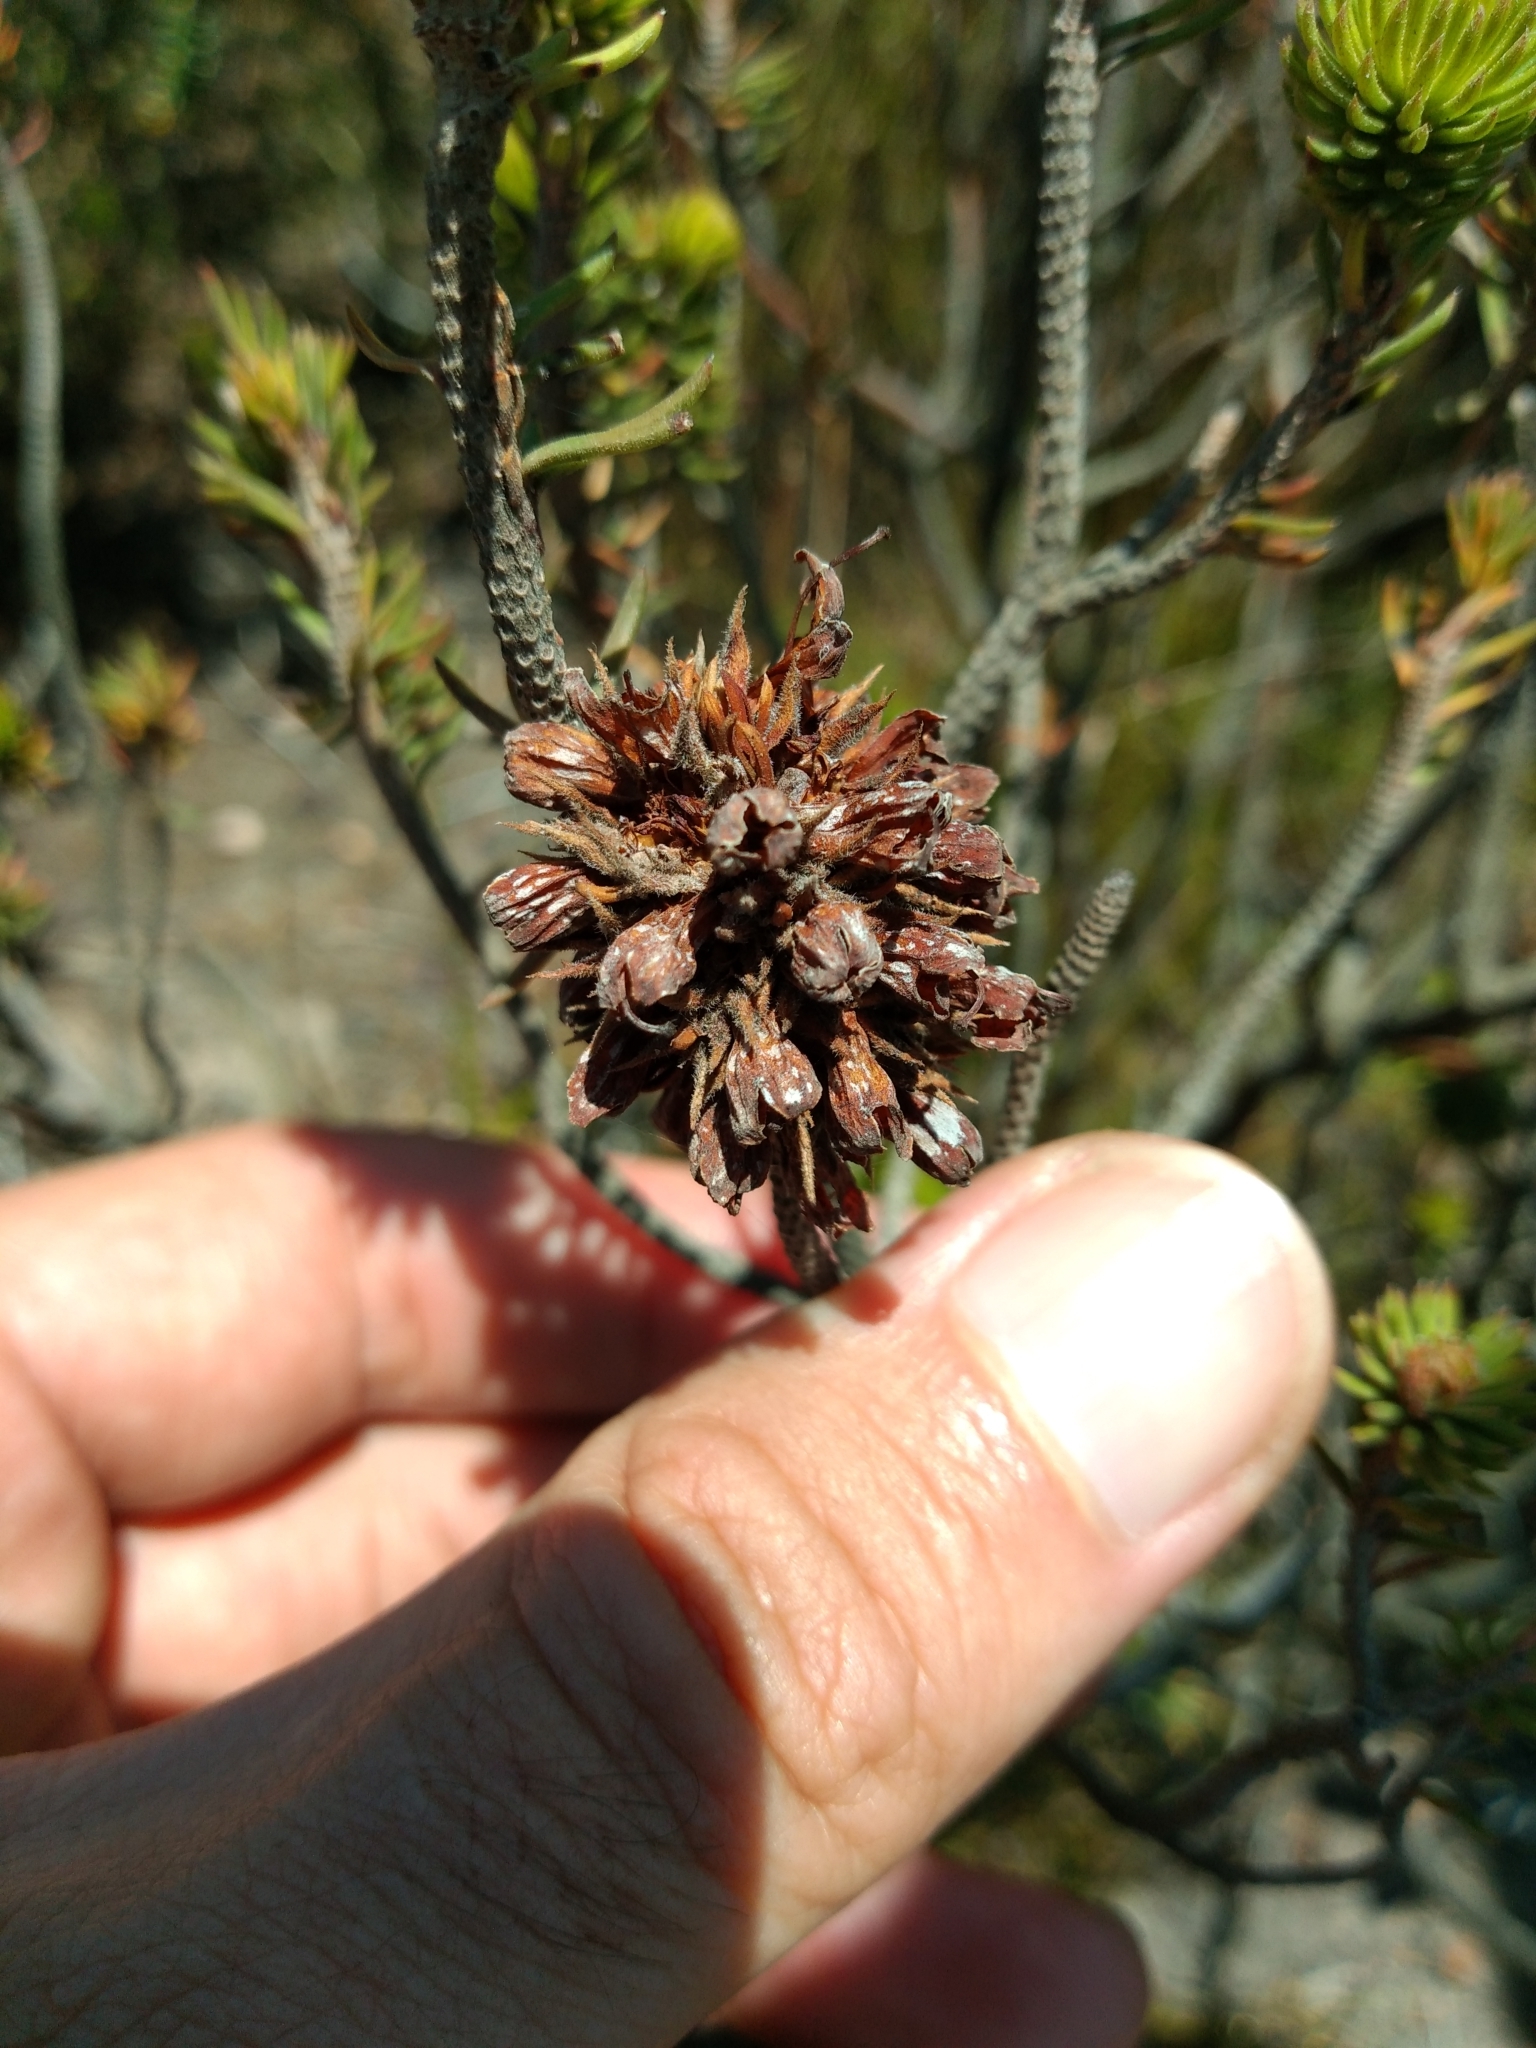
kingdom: Plantae
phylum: Tracheophyta
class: Magnoliopsida
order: Ericales
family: Ericaceae
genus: Erica
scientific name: Erica abietina
